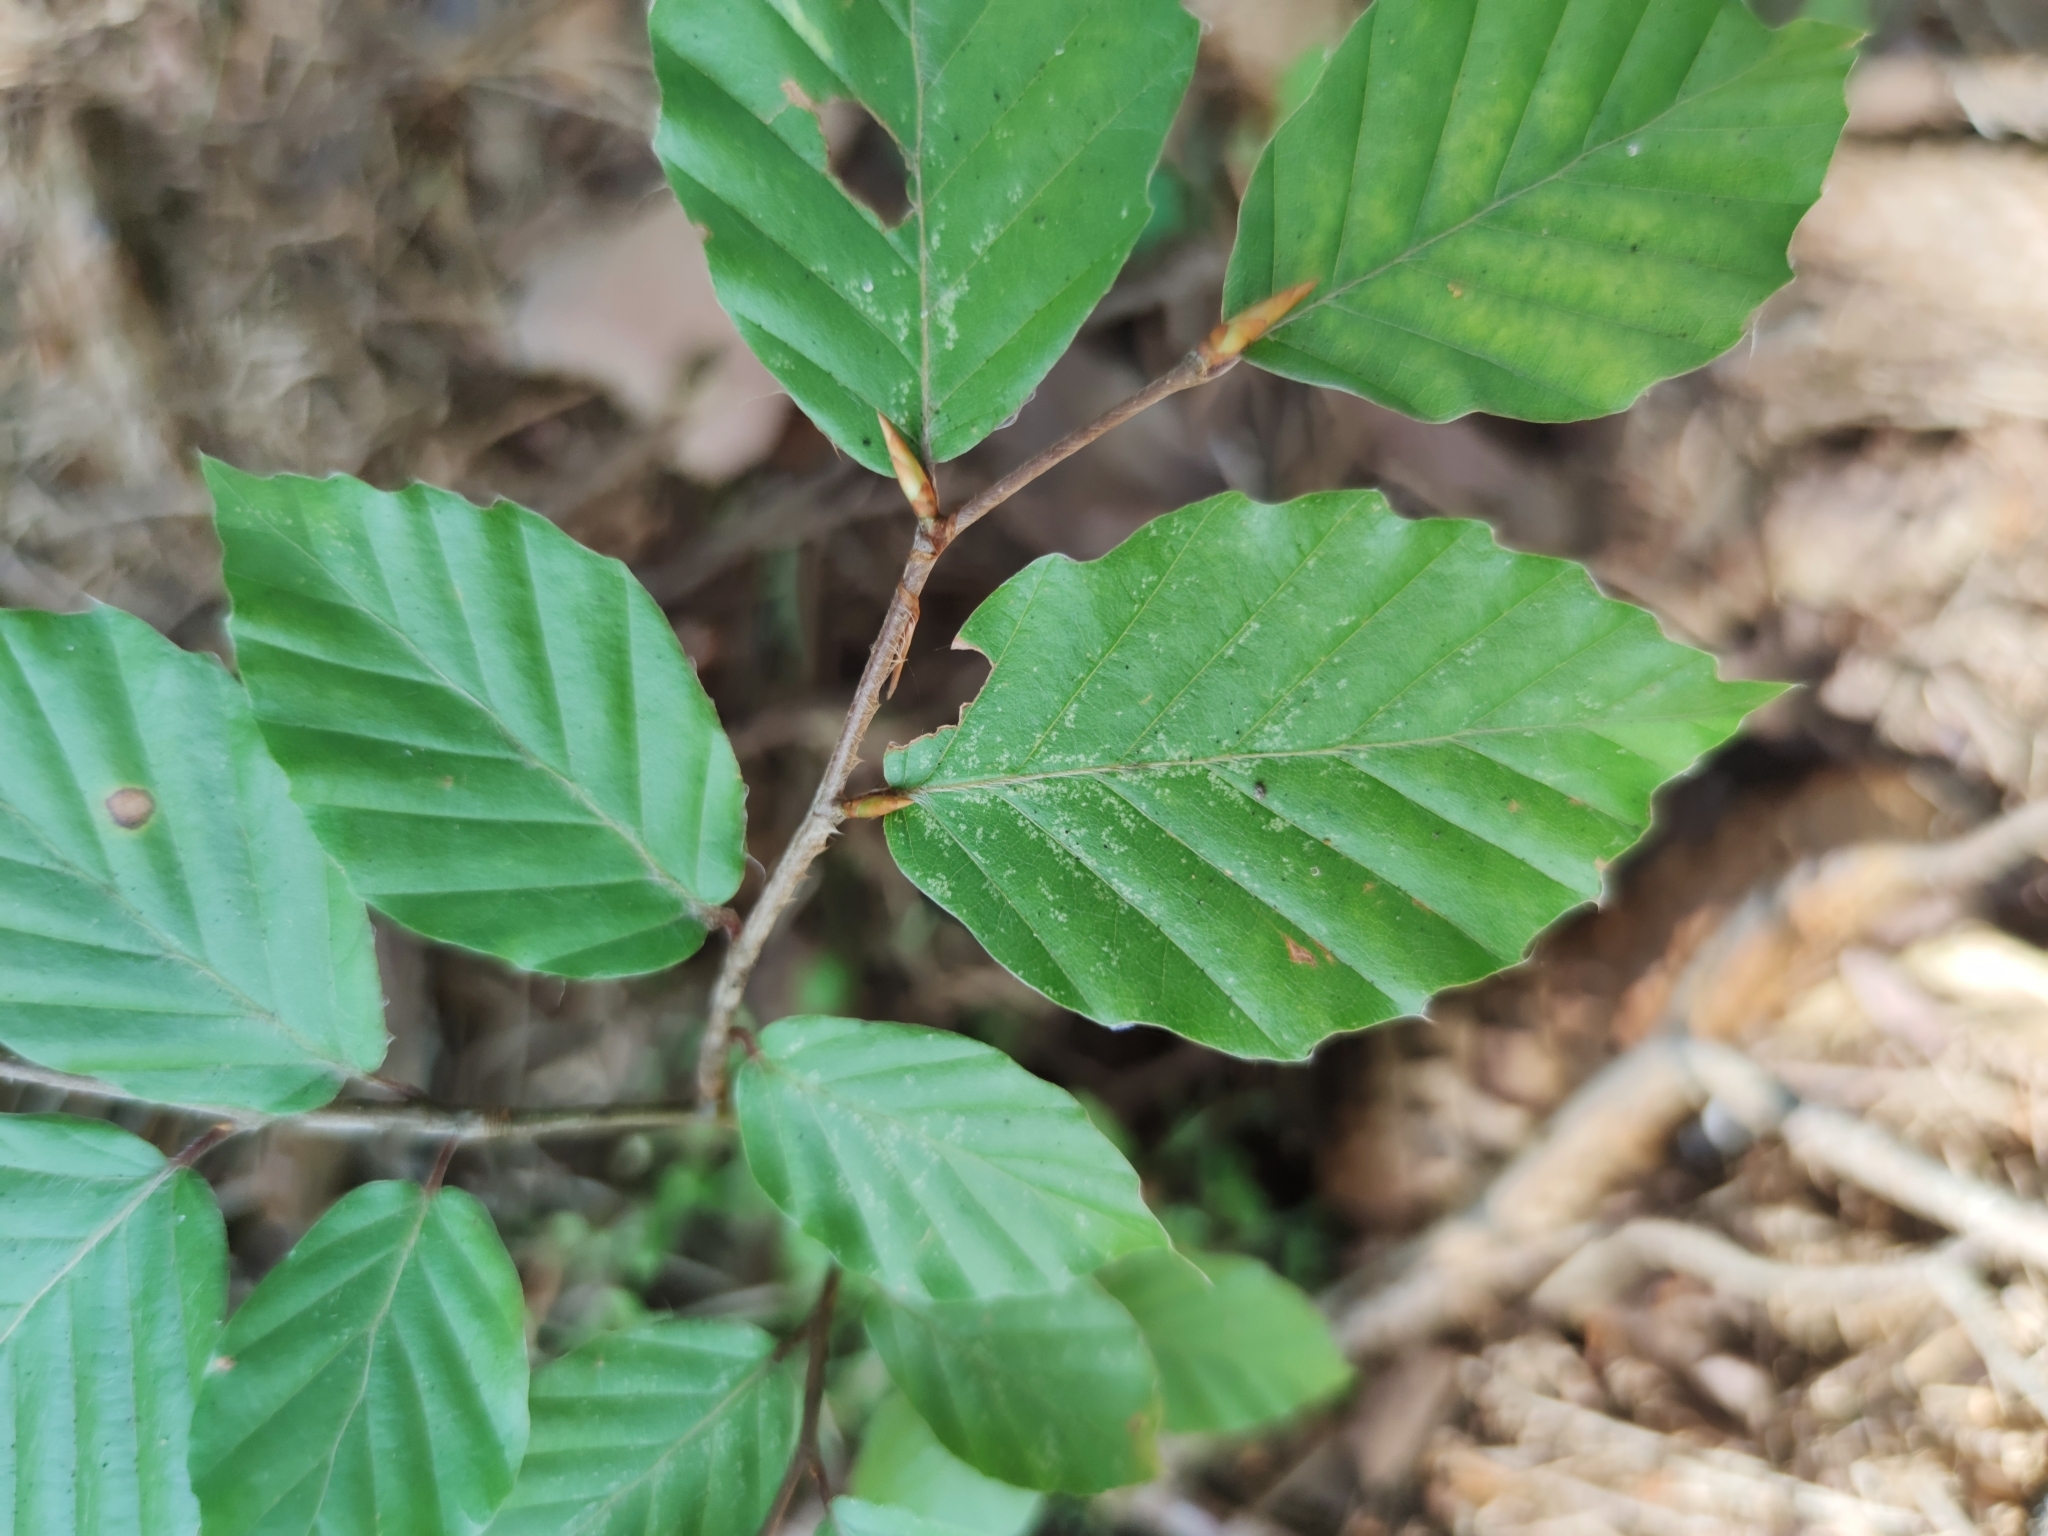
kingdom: Plantae
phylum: Tracheophyta
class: Magnoliopsida
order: Fagales
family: Fagaceae
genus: Fagus
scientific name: Fagus sylvatica
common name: Beech
